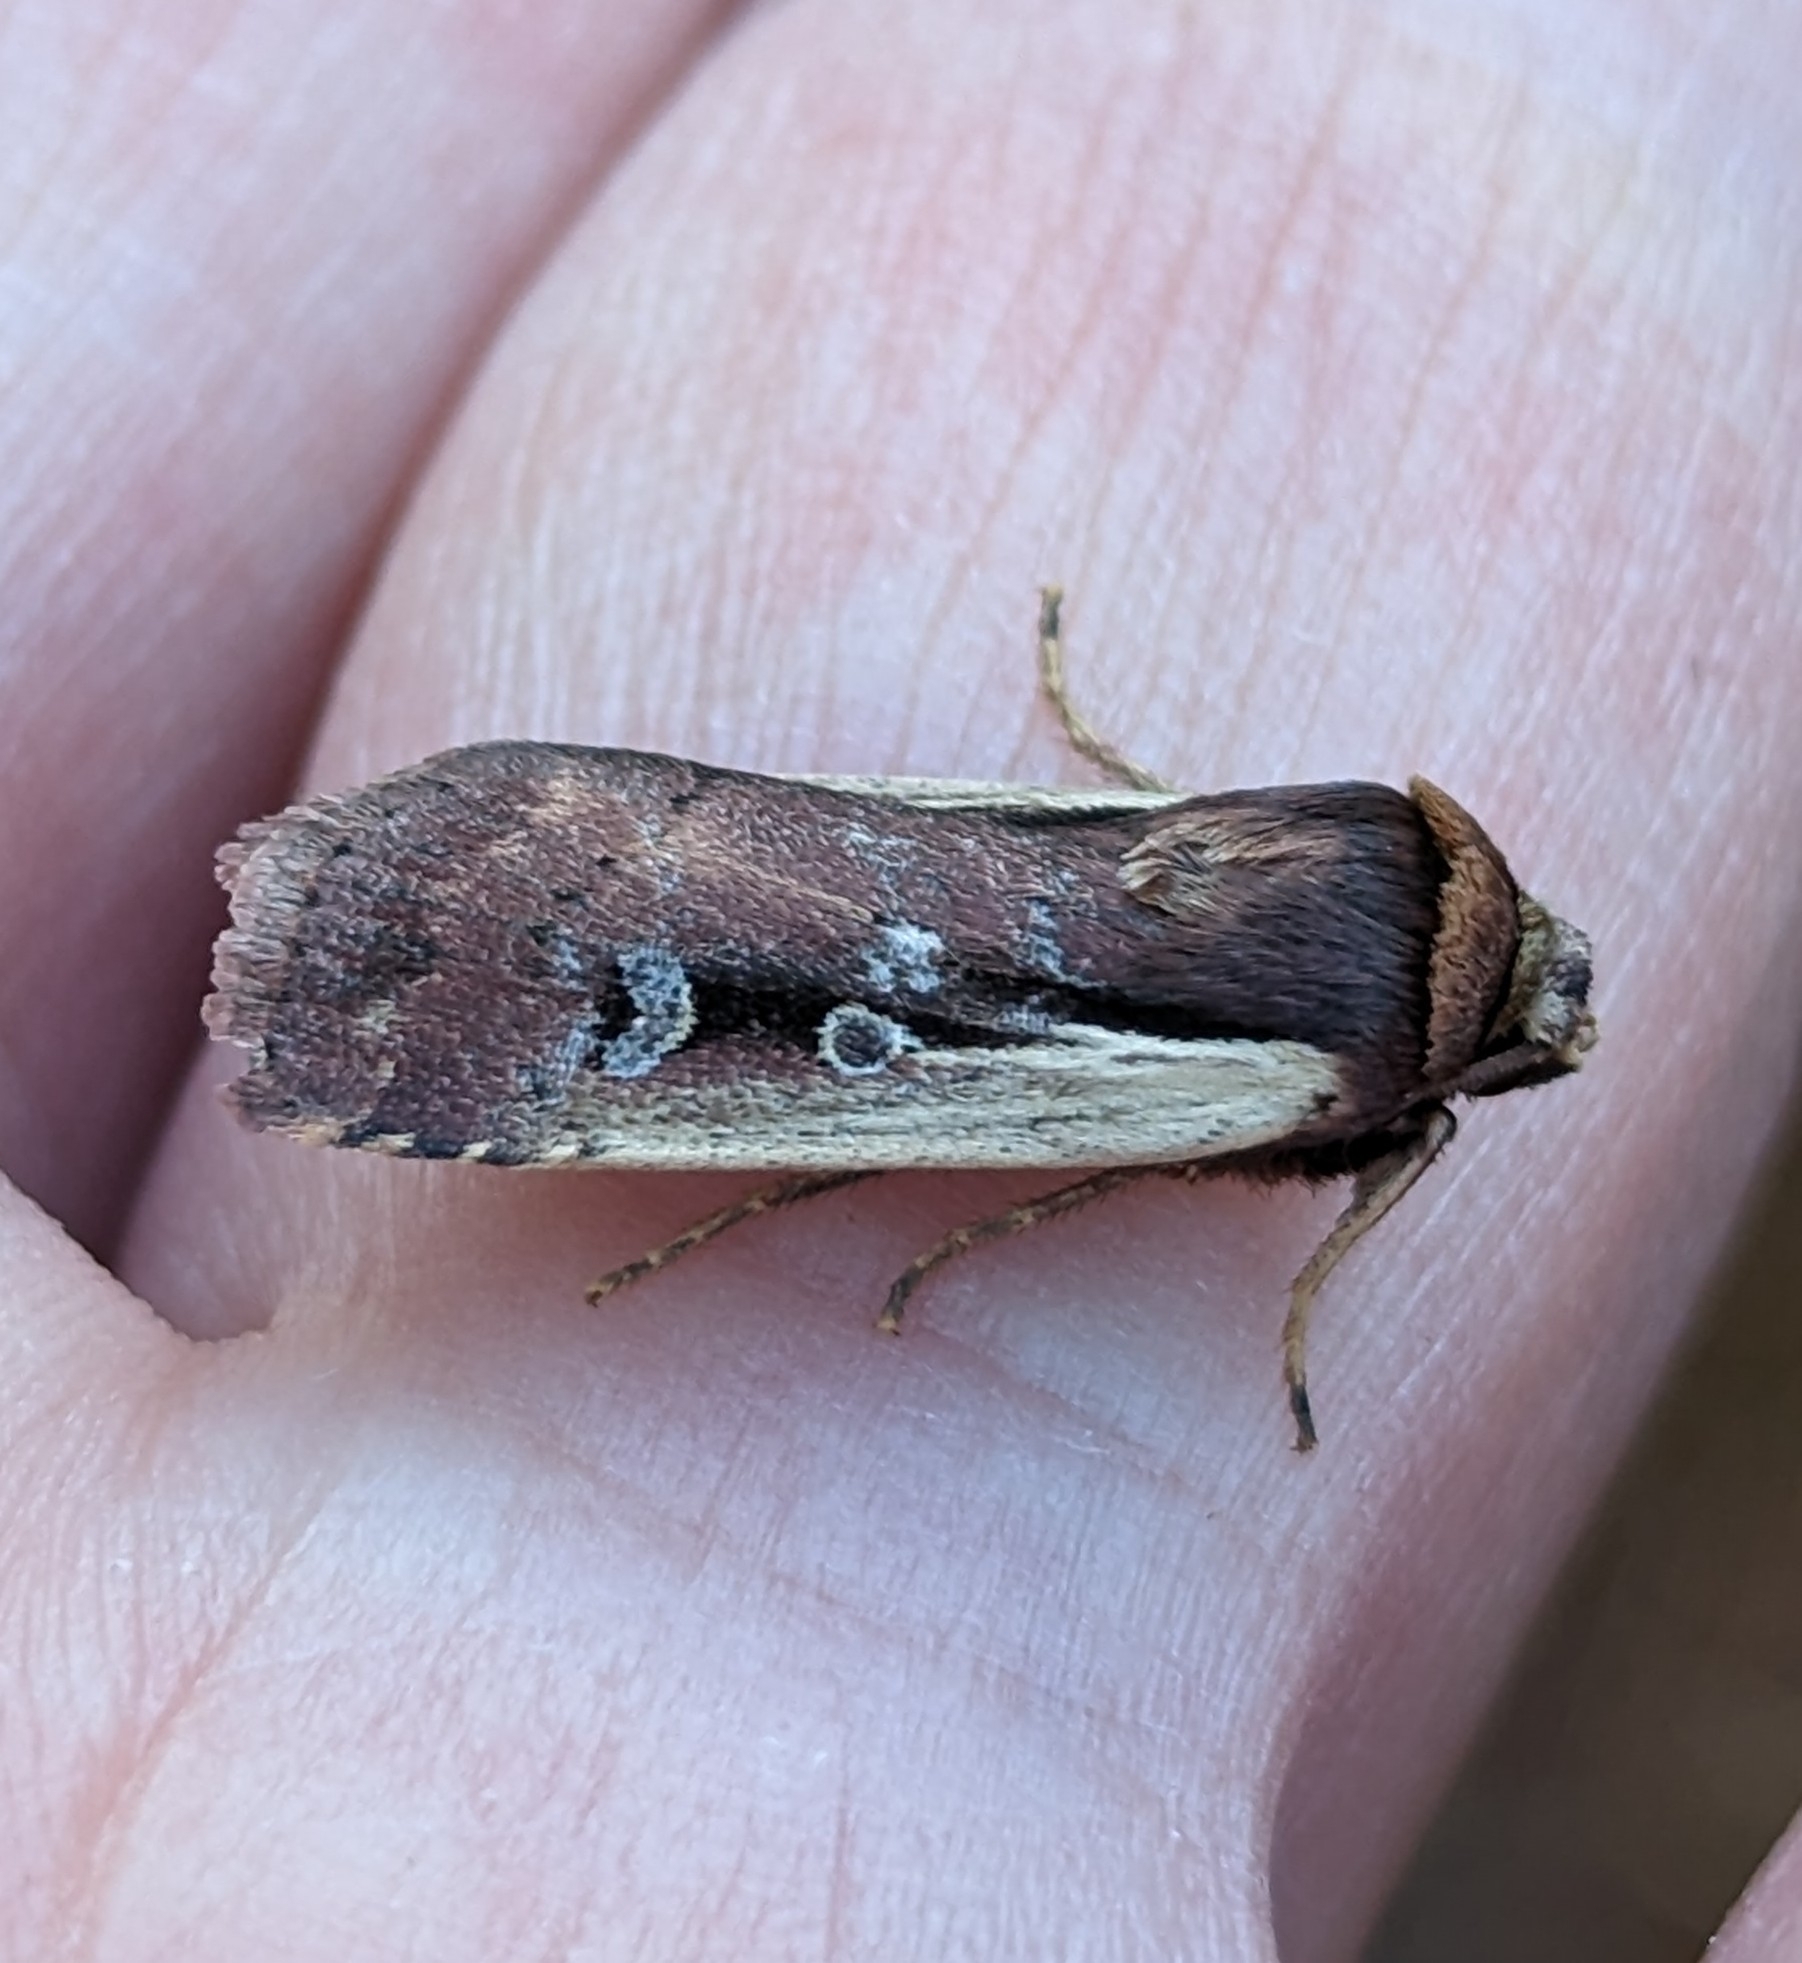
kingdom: Animalia
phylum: Arthropoda
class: Insecta
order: Lepidoptera
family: Noctuidae
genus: Ochropleura
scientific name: Ochropleura implecta
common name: Flame-shouldered dart
